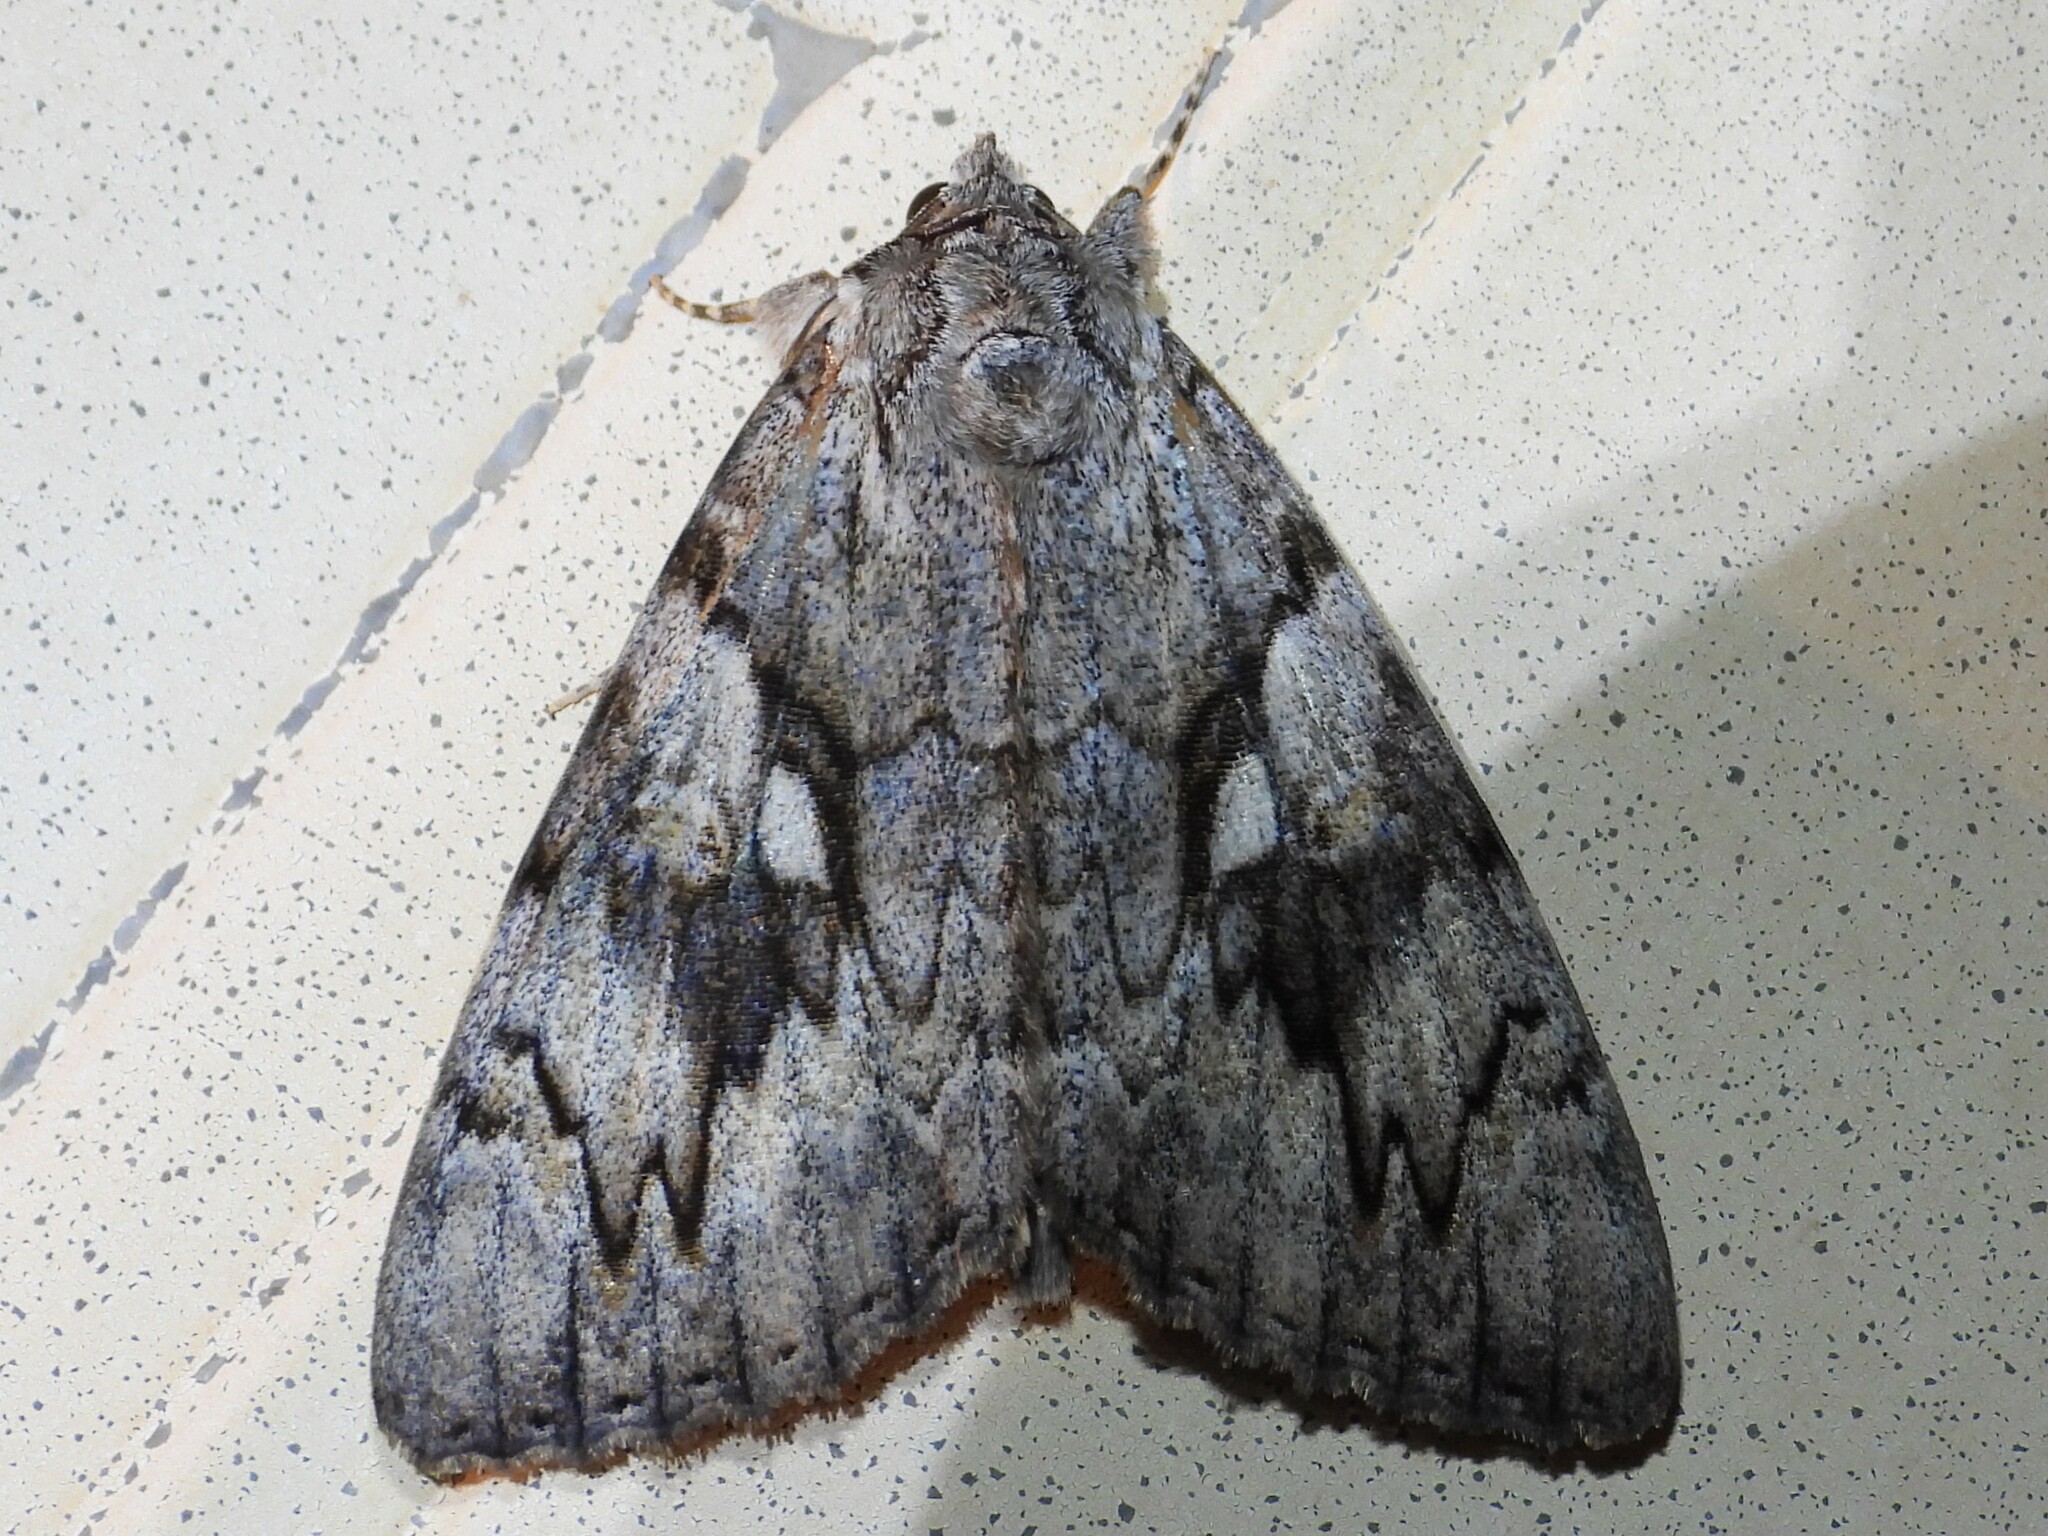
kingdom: Animalia
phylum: Arthropoda
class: Insecta
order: Lepidoptera
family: Erebidae
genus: Catocala
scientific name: Catocala cerogama
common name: Yellow banded underwing
